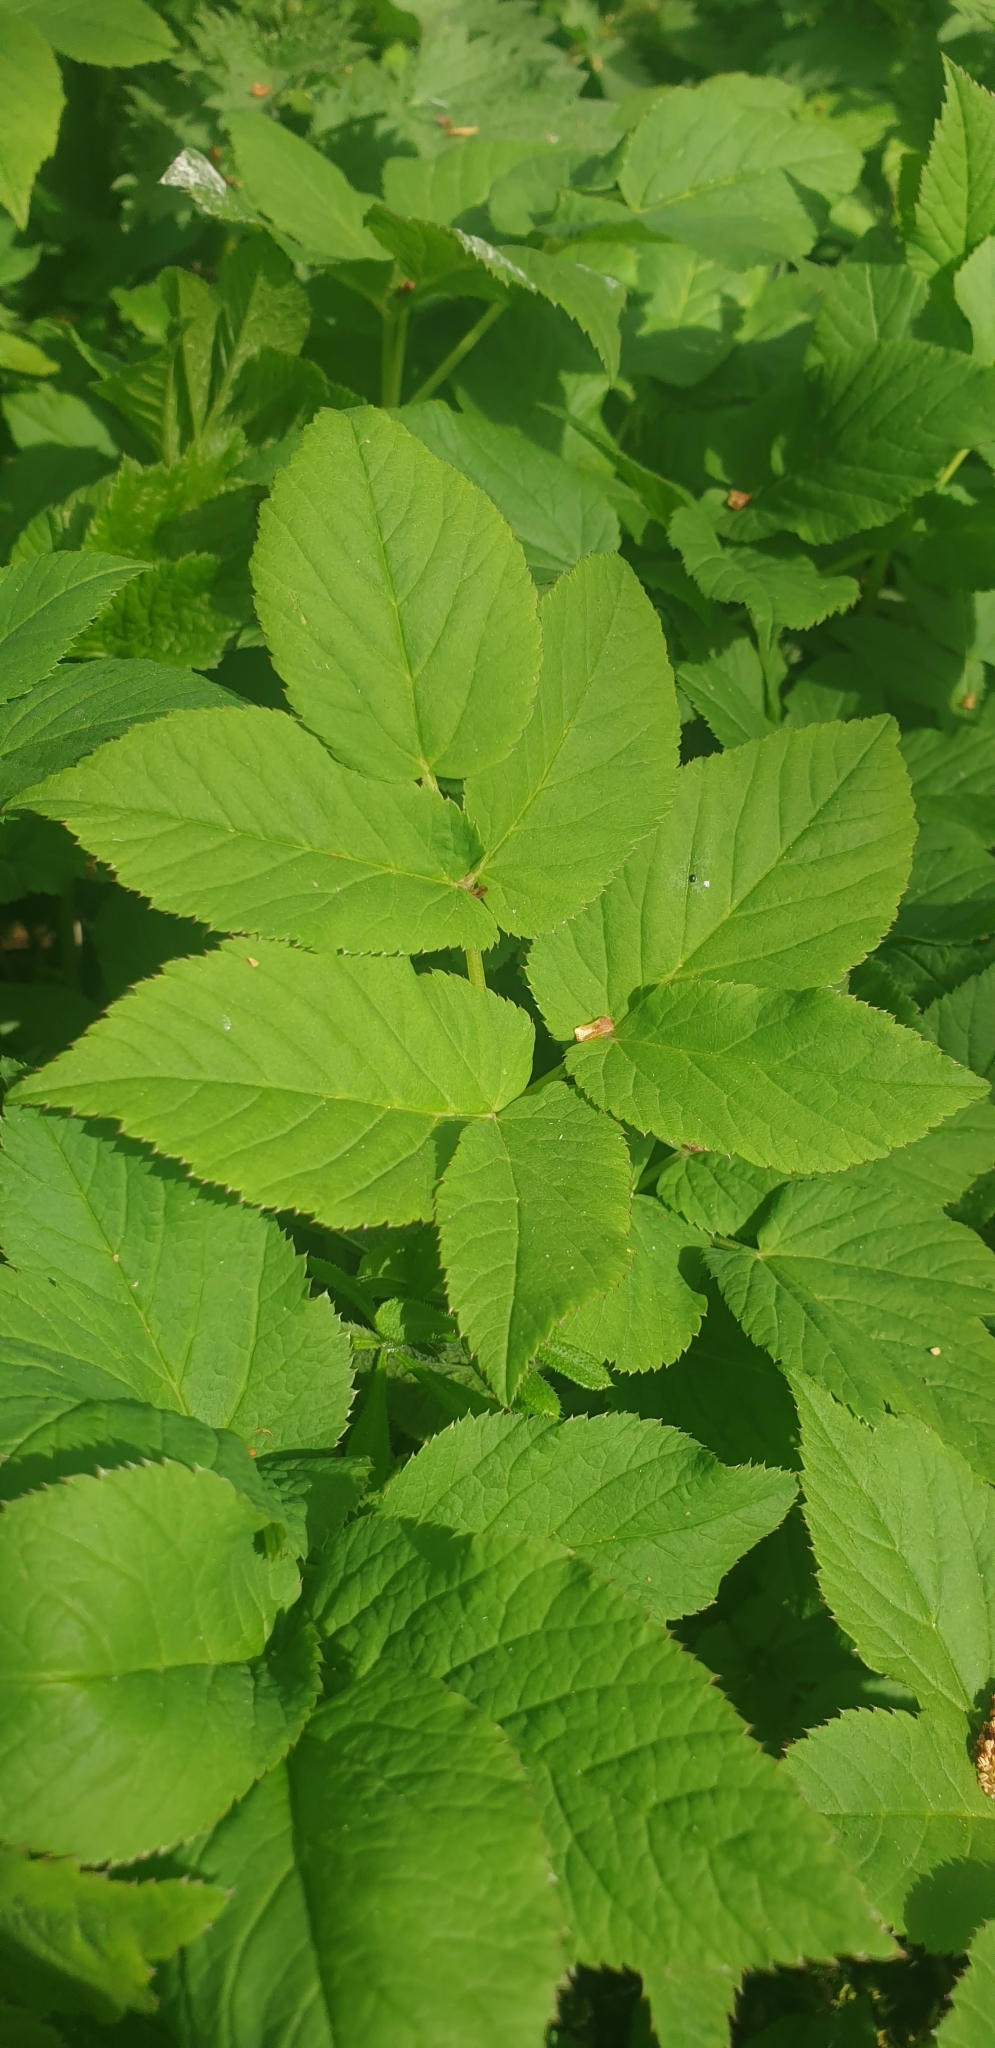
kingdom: Plantae
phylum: Tracheophyta
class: Magnoliopsida
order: Apiales
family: Apiaceae
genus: Aegopodium
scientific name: Aegopodium podagraria
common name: Ground-elder
